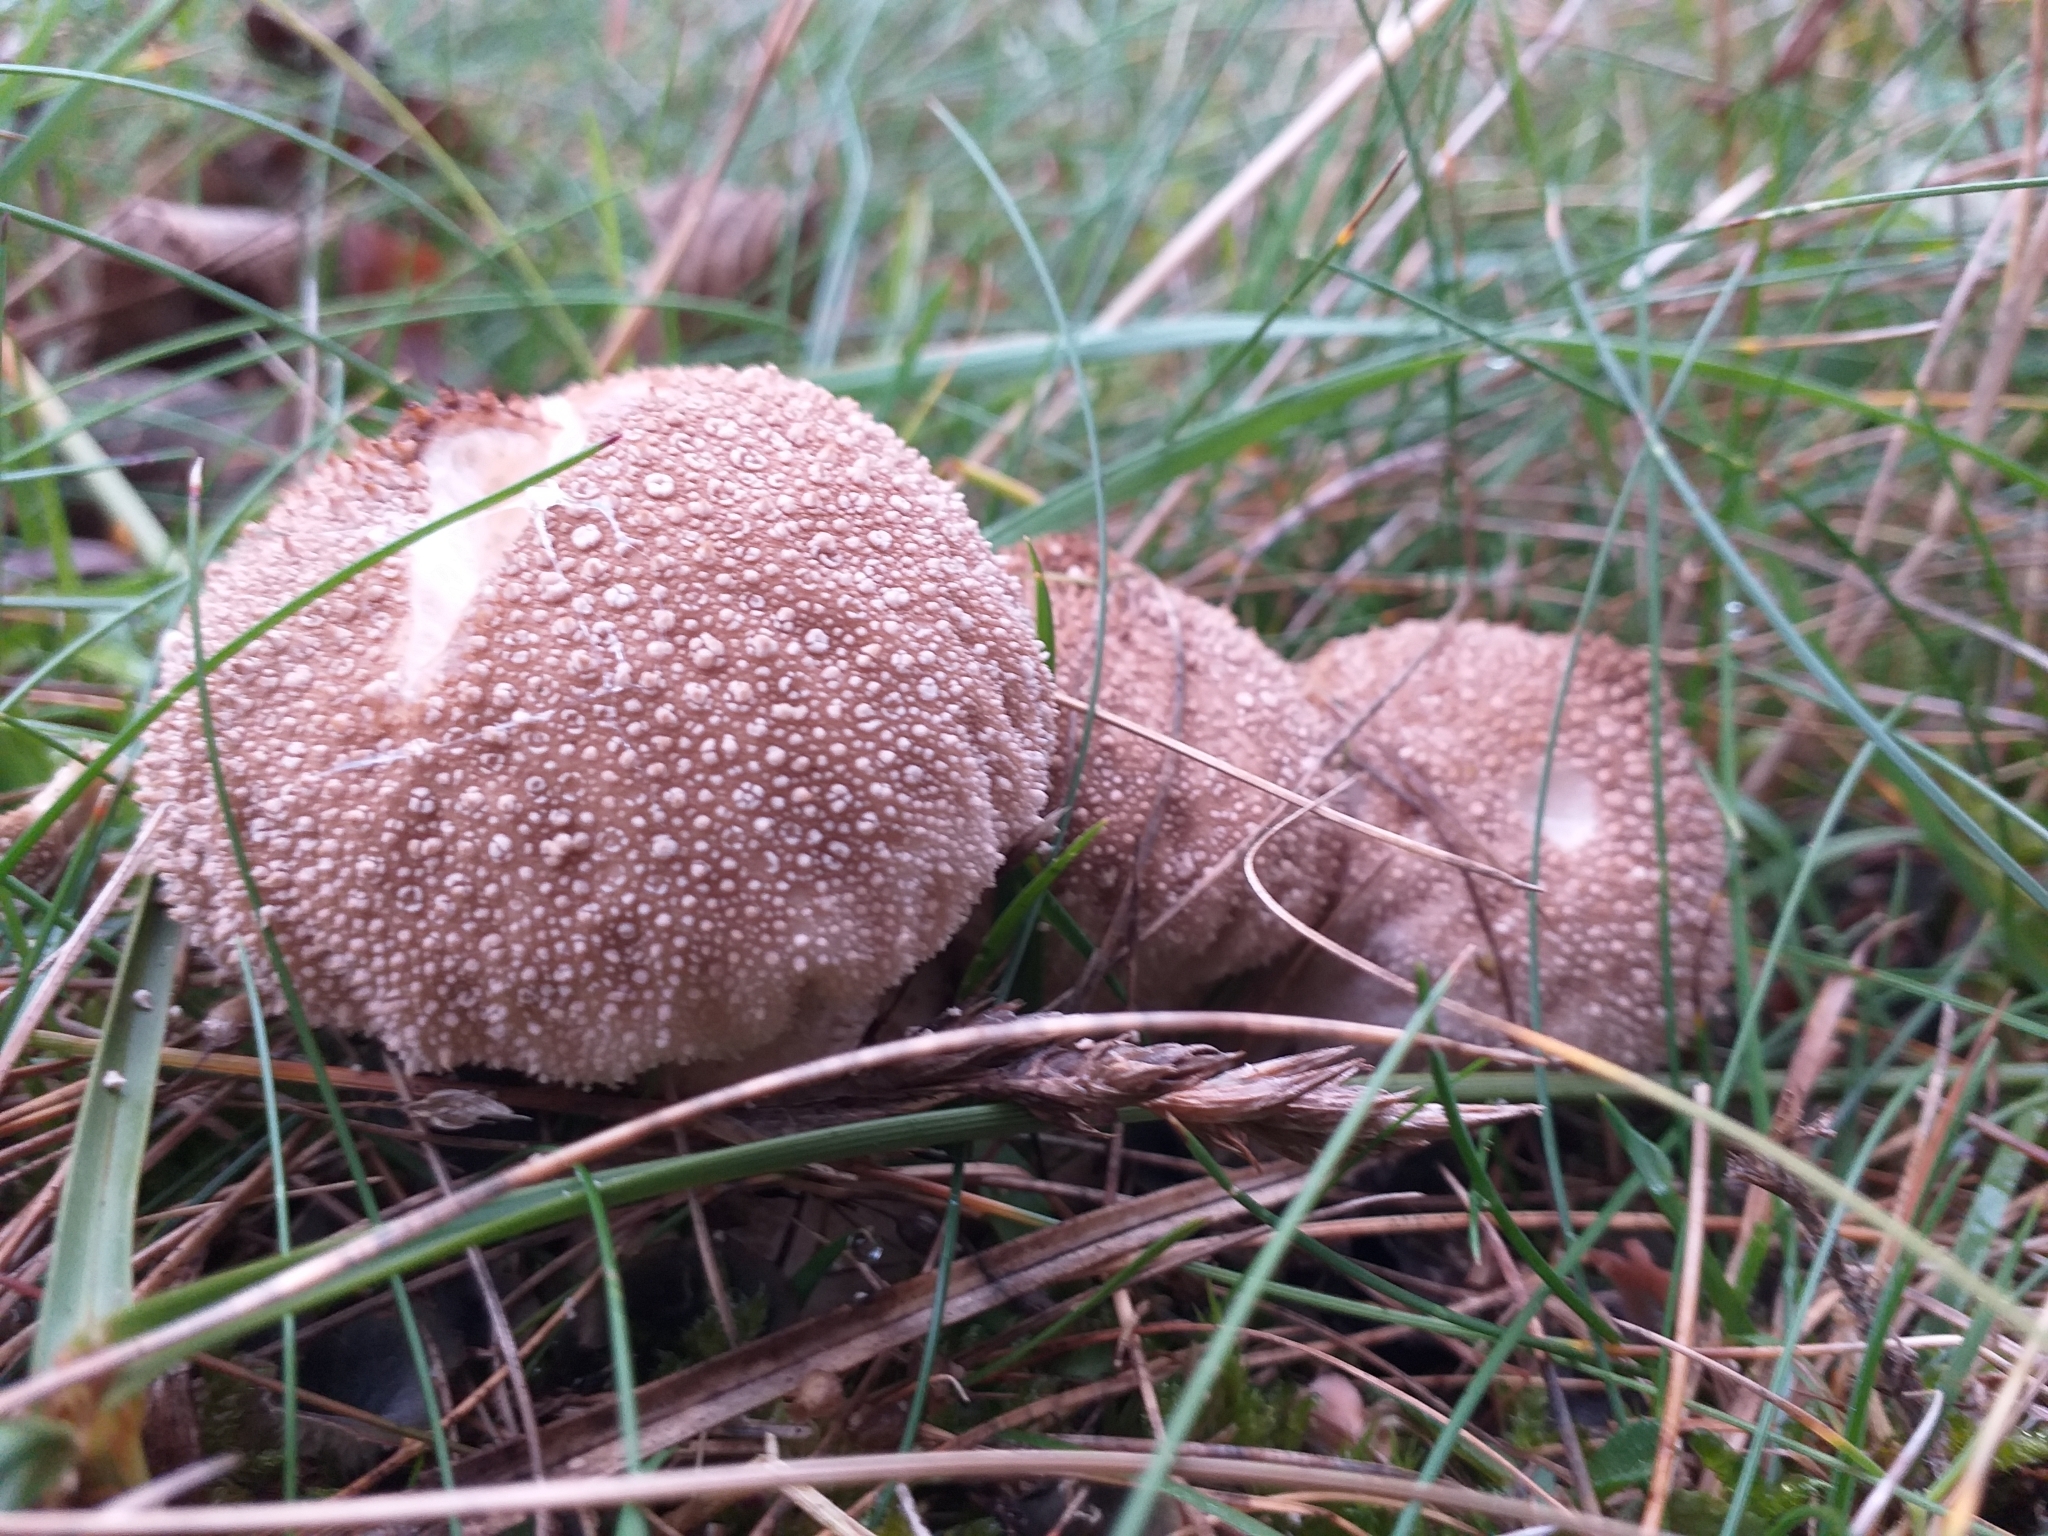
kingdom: Fungi
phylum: Basidiomycota
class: Agaricomycetes
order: Agaricales
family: Lycoperdaceae
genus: Lycoperdon
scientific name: Lycoperdon perlatum
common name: Common puffball
